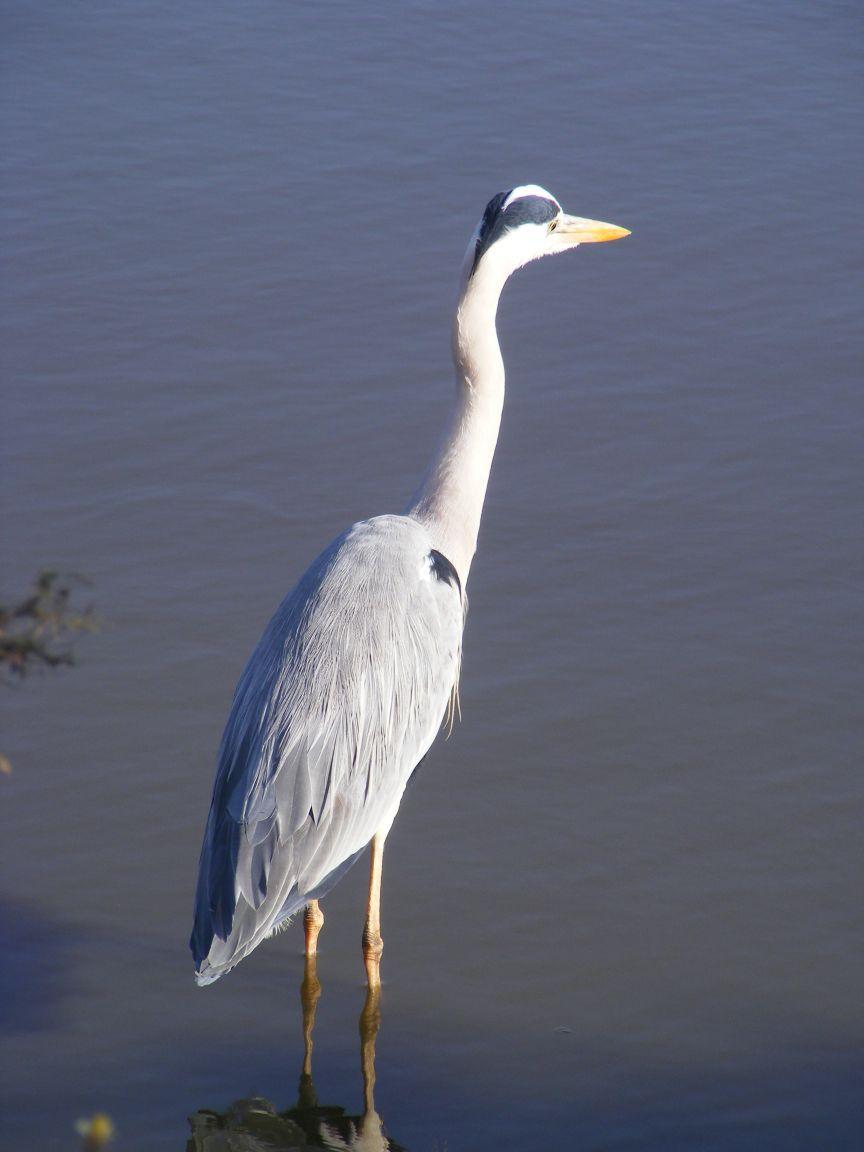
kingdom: Animalia
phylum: Chordata
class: Aves
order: Pelecaniformes
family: Ardeidae
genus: Ardea
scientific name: Ardea cinerea
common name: Grey heron
